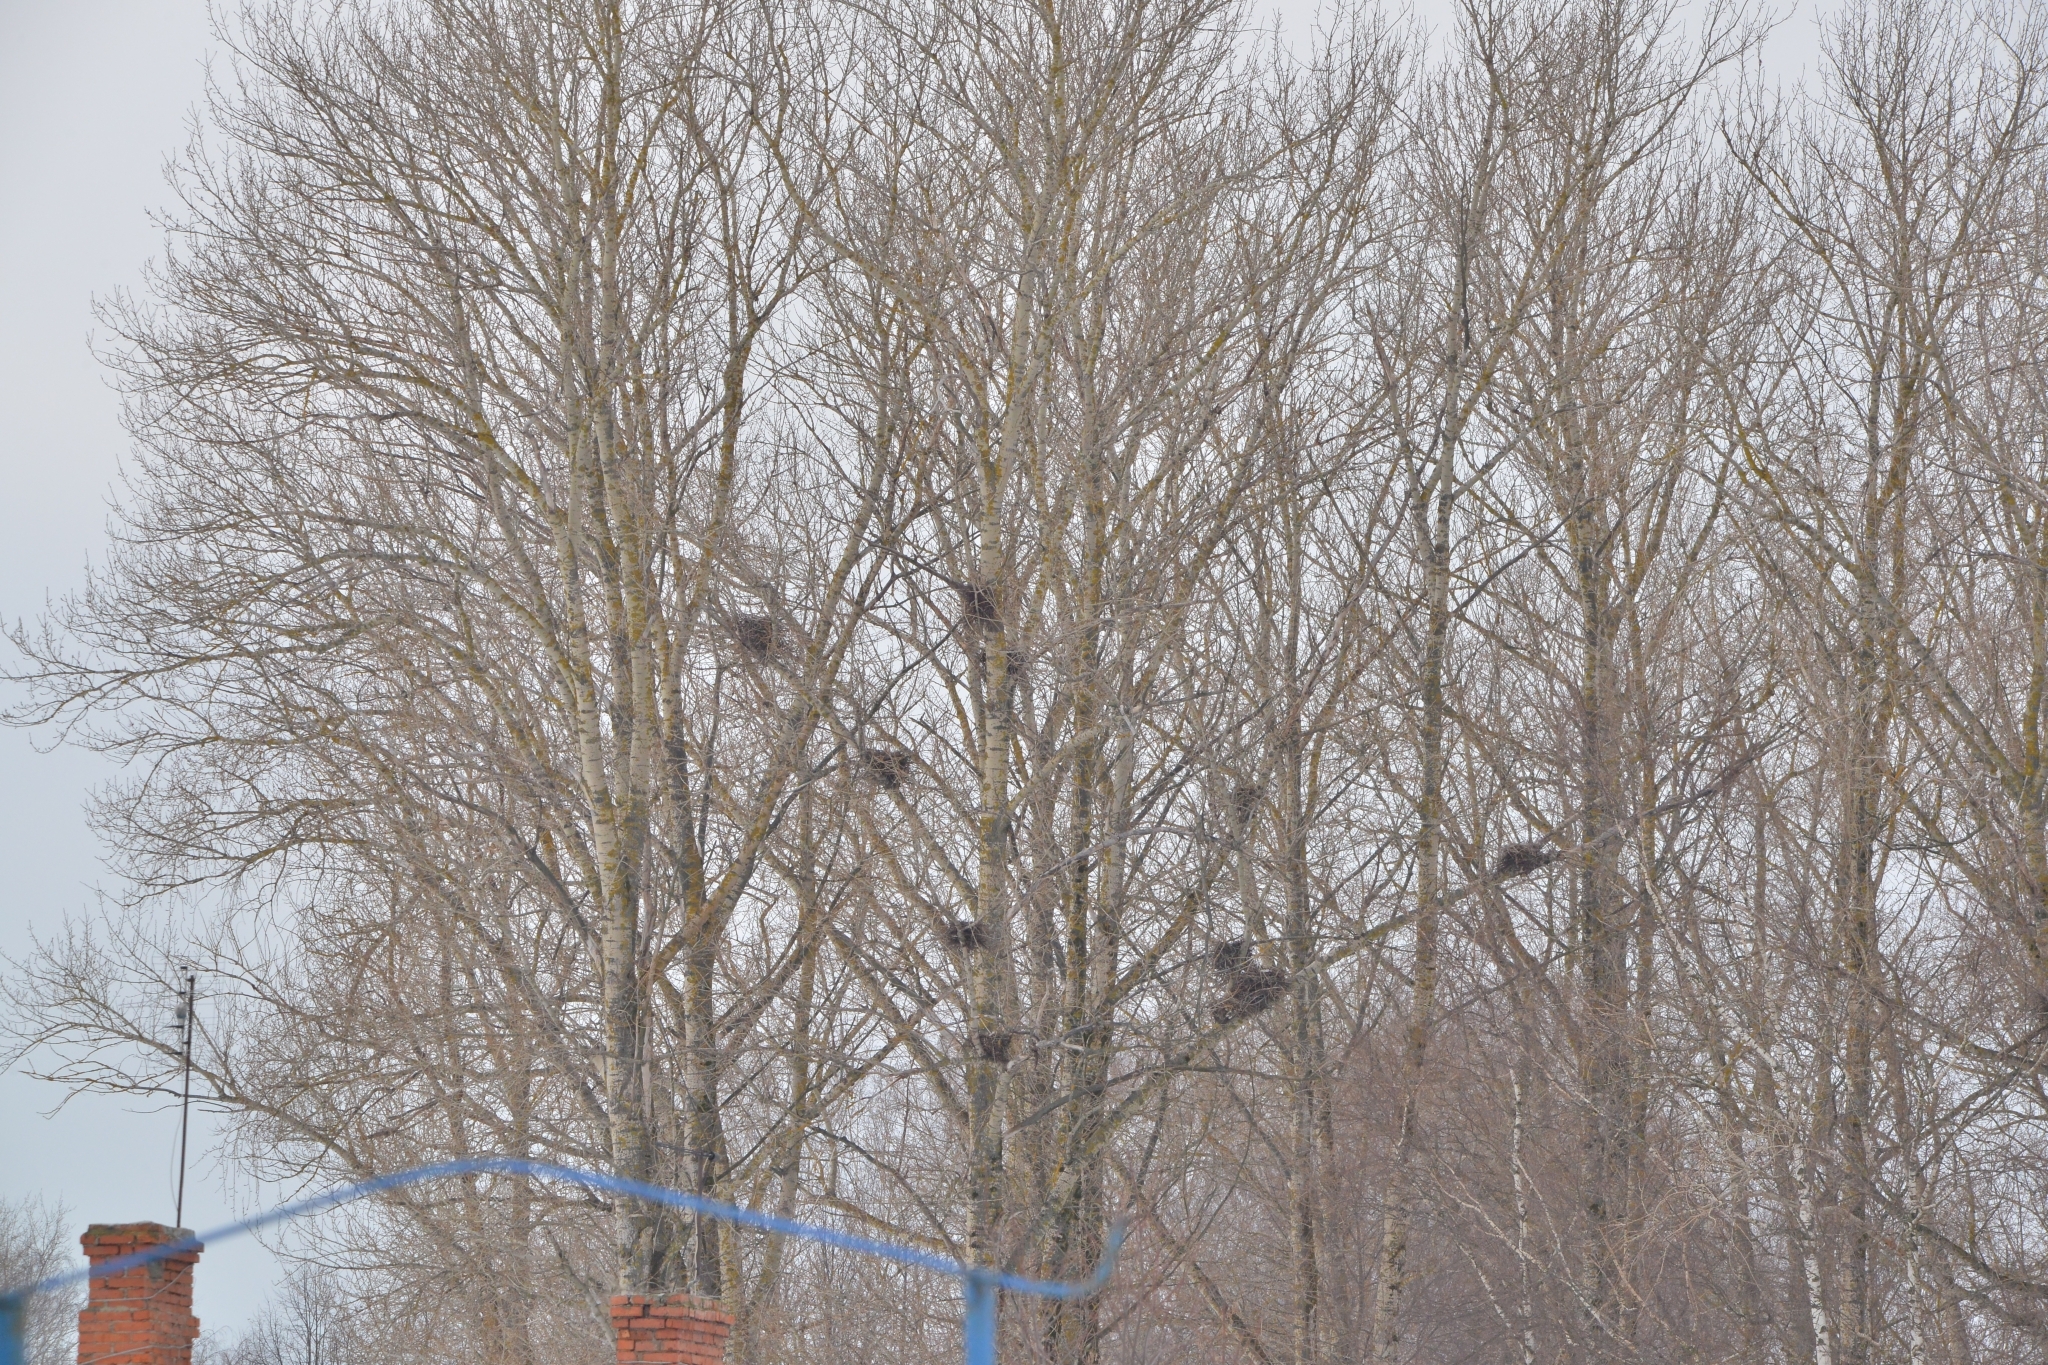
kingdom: Animalia
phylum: Chordata
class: Aves
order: Passeriformes
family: Corvidae
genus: Corvus
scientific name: Corvus frugilegus
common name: Rook
